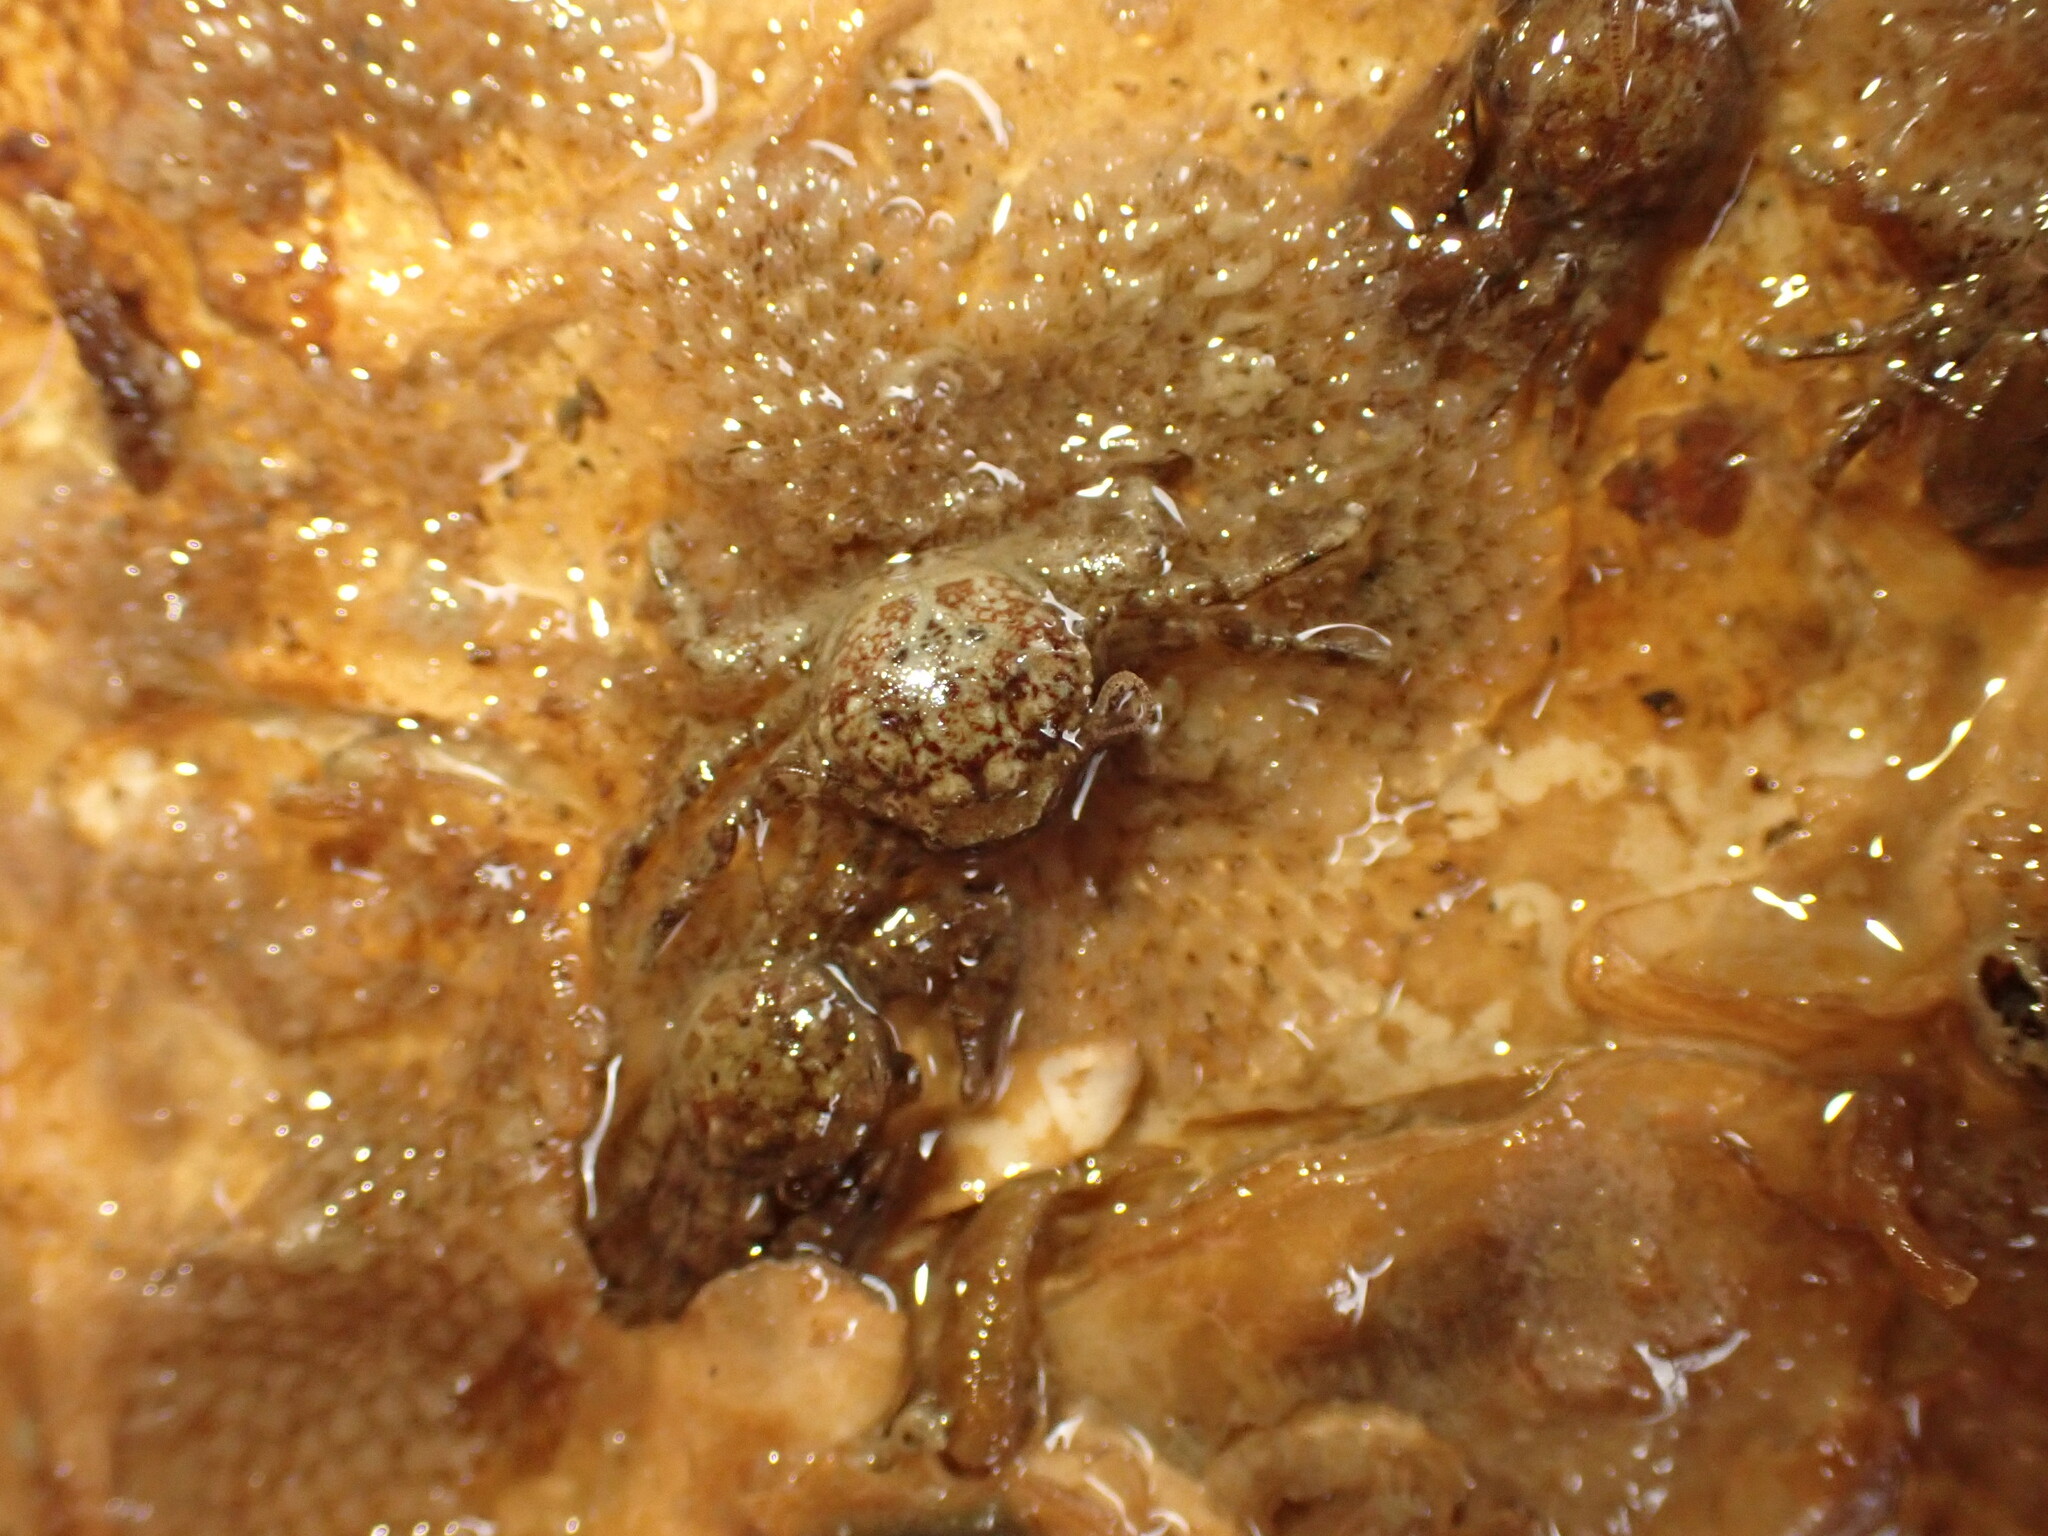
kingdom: Animalia
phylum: Arthropoda
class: Malacostraca
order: Decapoda
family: Porcellanidae
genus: Petrolisthes
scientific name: Petrolisthes novaezelandiae
